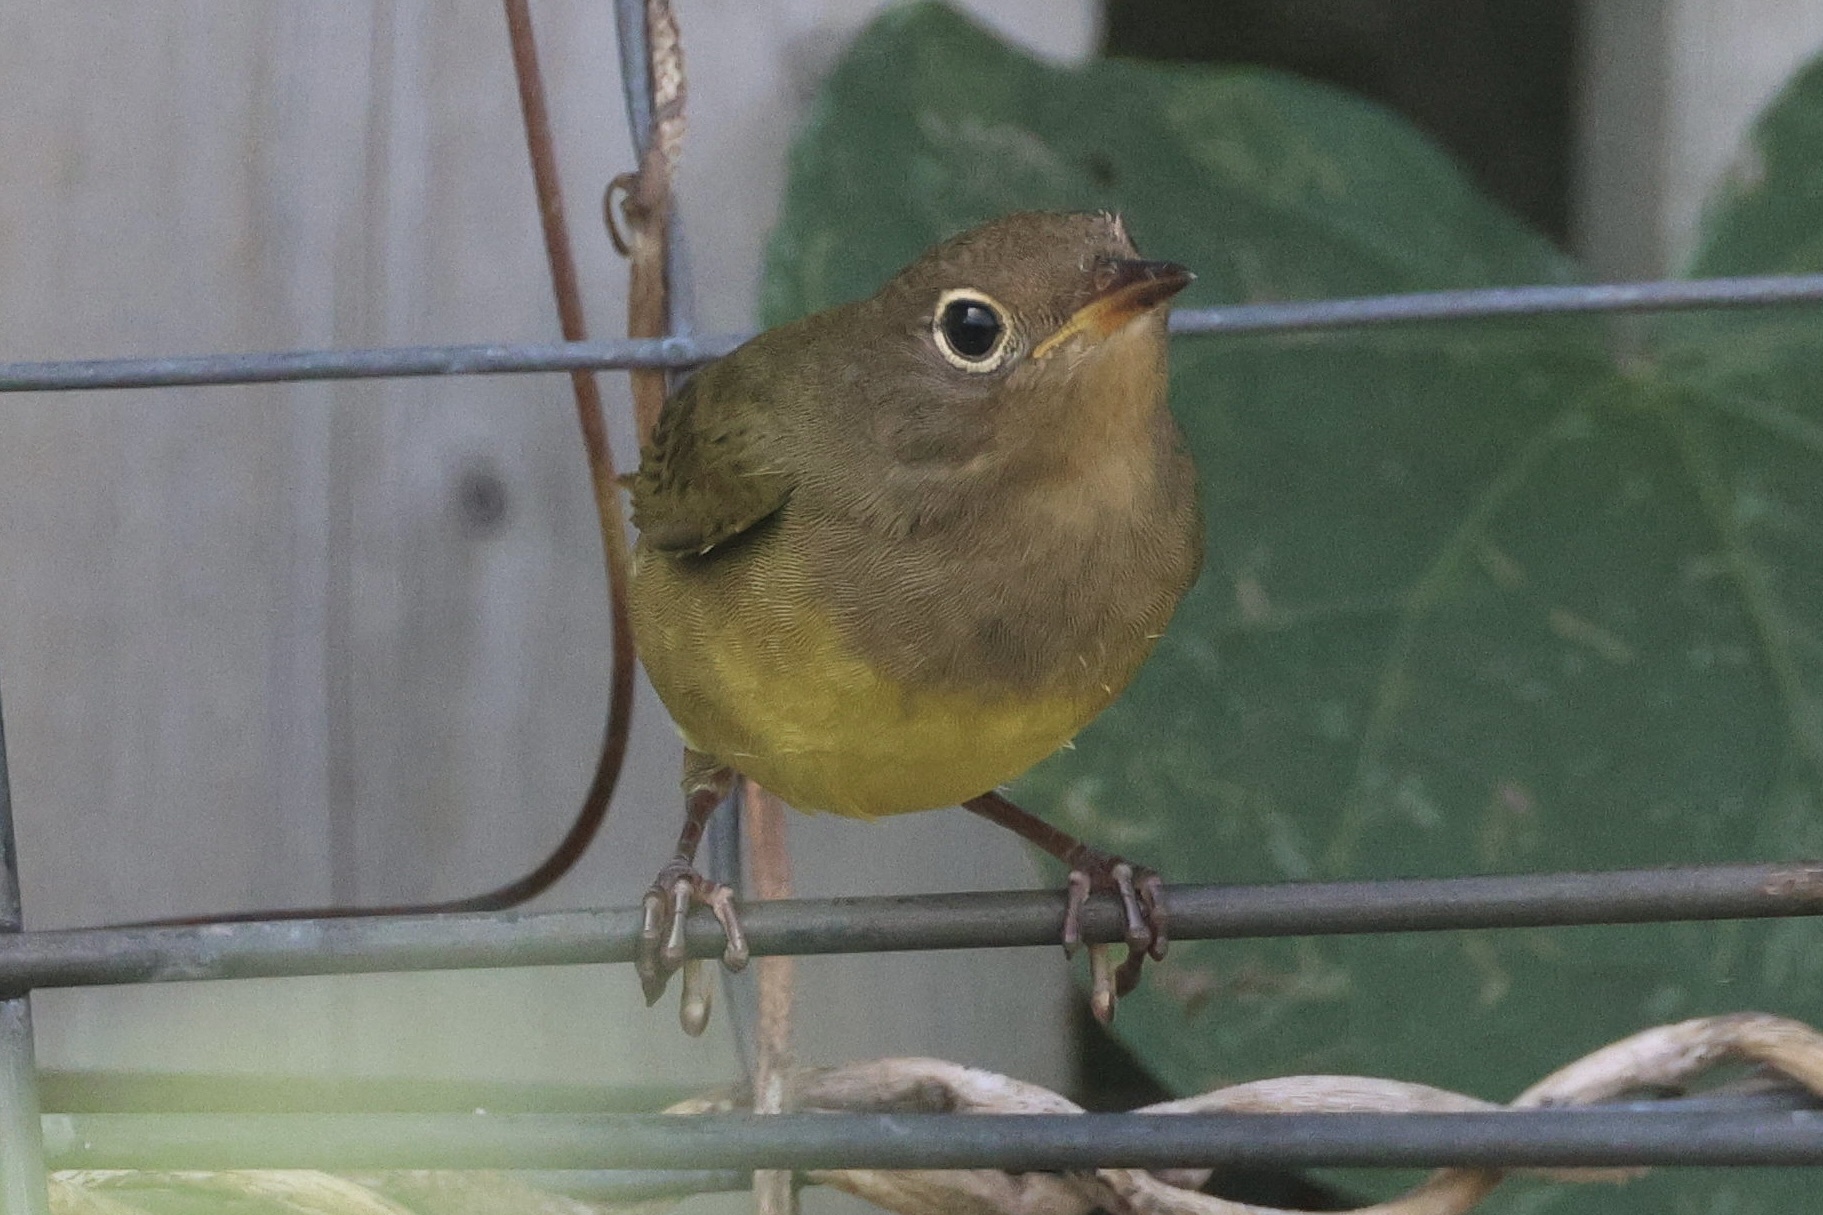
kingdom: Animalia
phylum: Chordata
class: Aves
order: Passeriformes
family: Parulidae
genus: Oporornis
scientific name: Oporornis agilis
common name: Connecticut warbler
